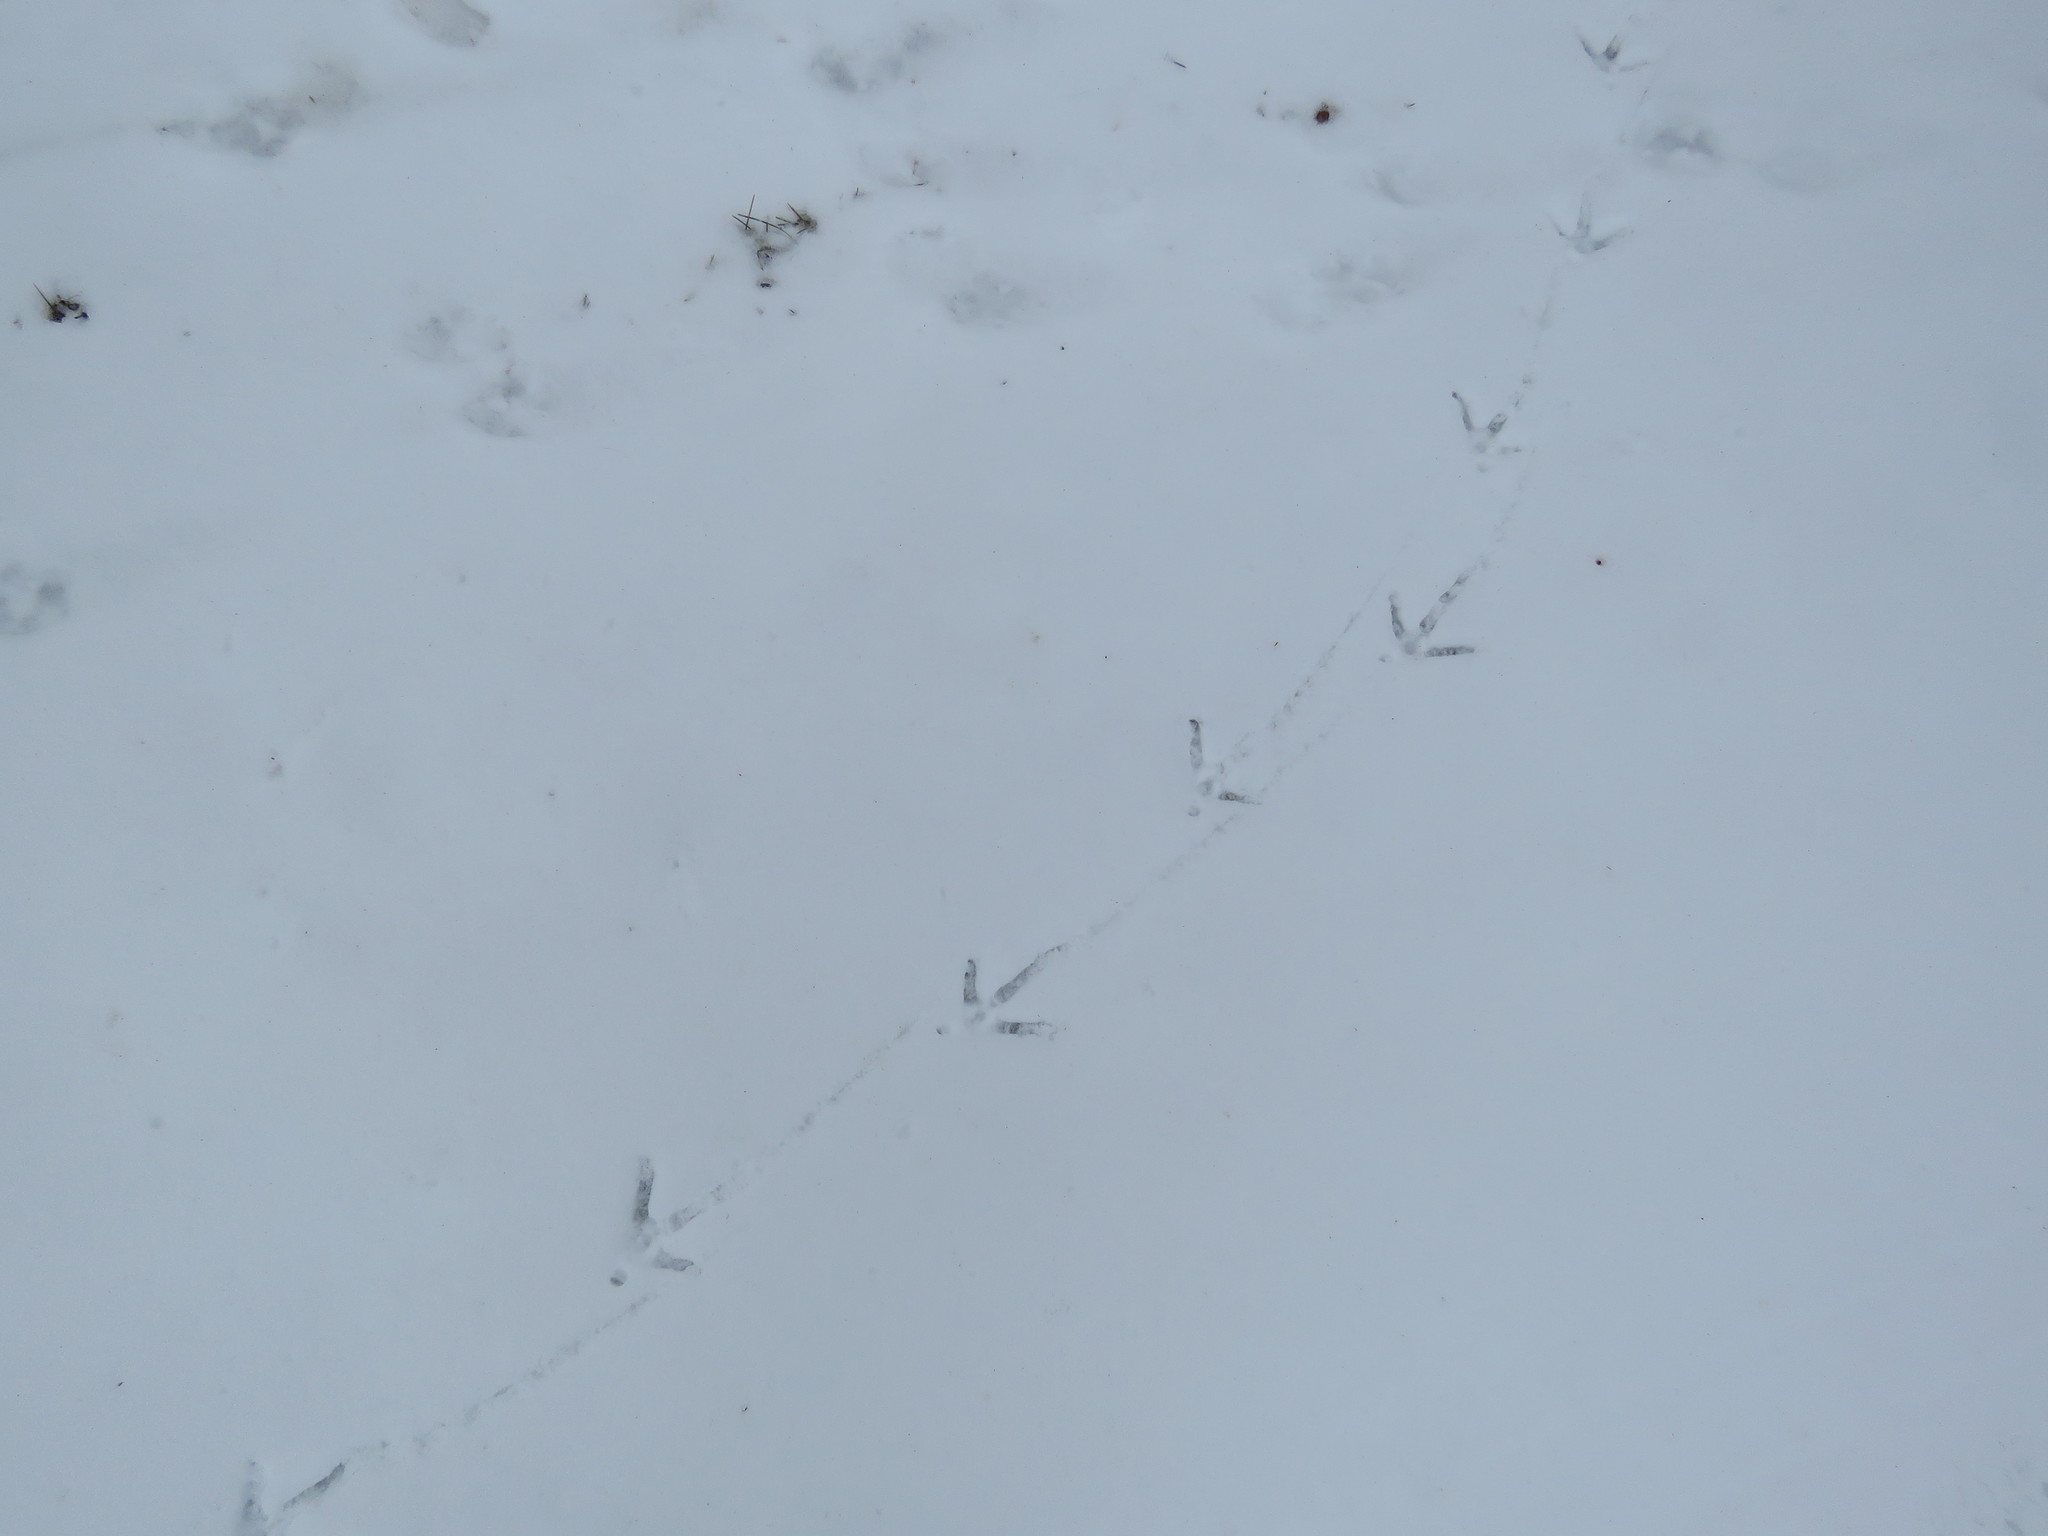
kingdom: Animalia
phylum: Chordata
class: Aves
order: Galliformes
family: Phasianidae
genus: Meleagris
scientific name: Meleagris gallopavo
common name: Wild turkey
